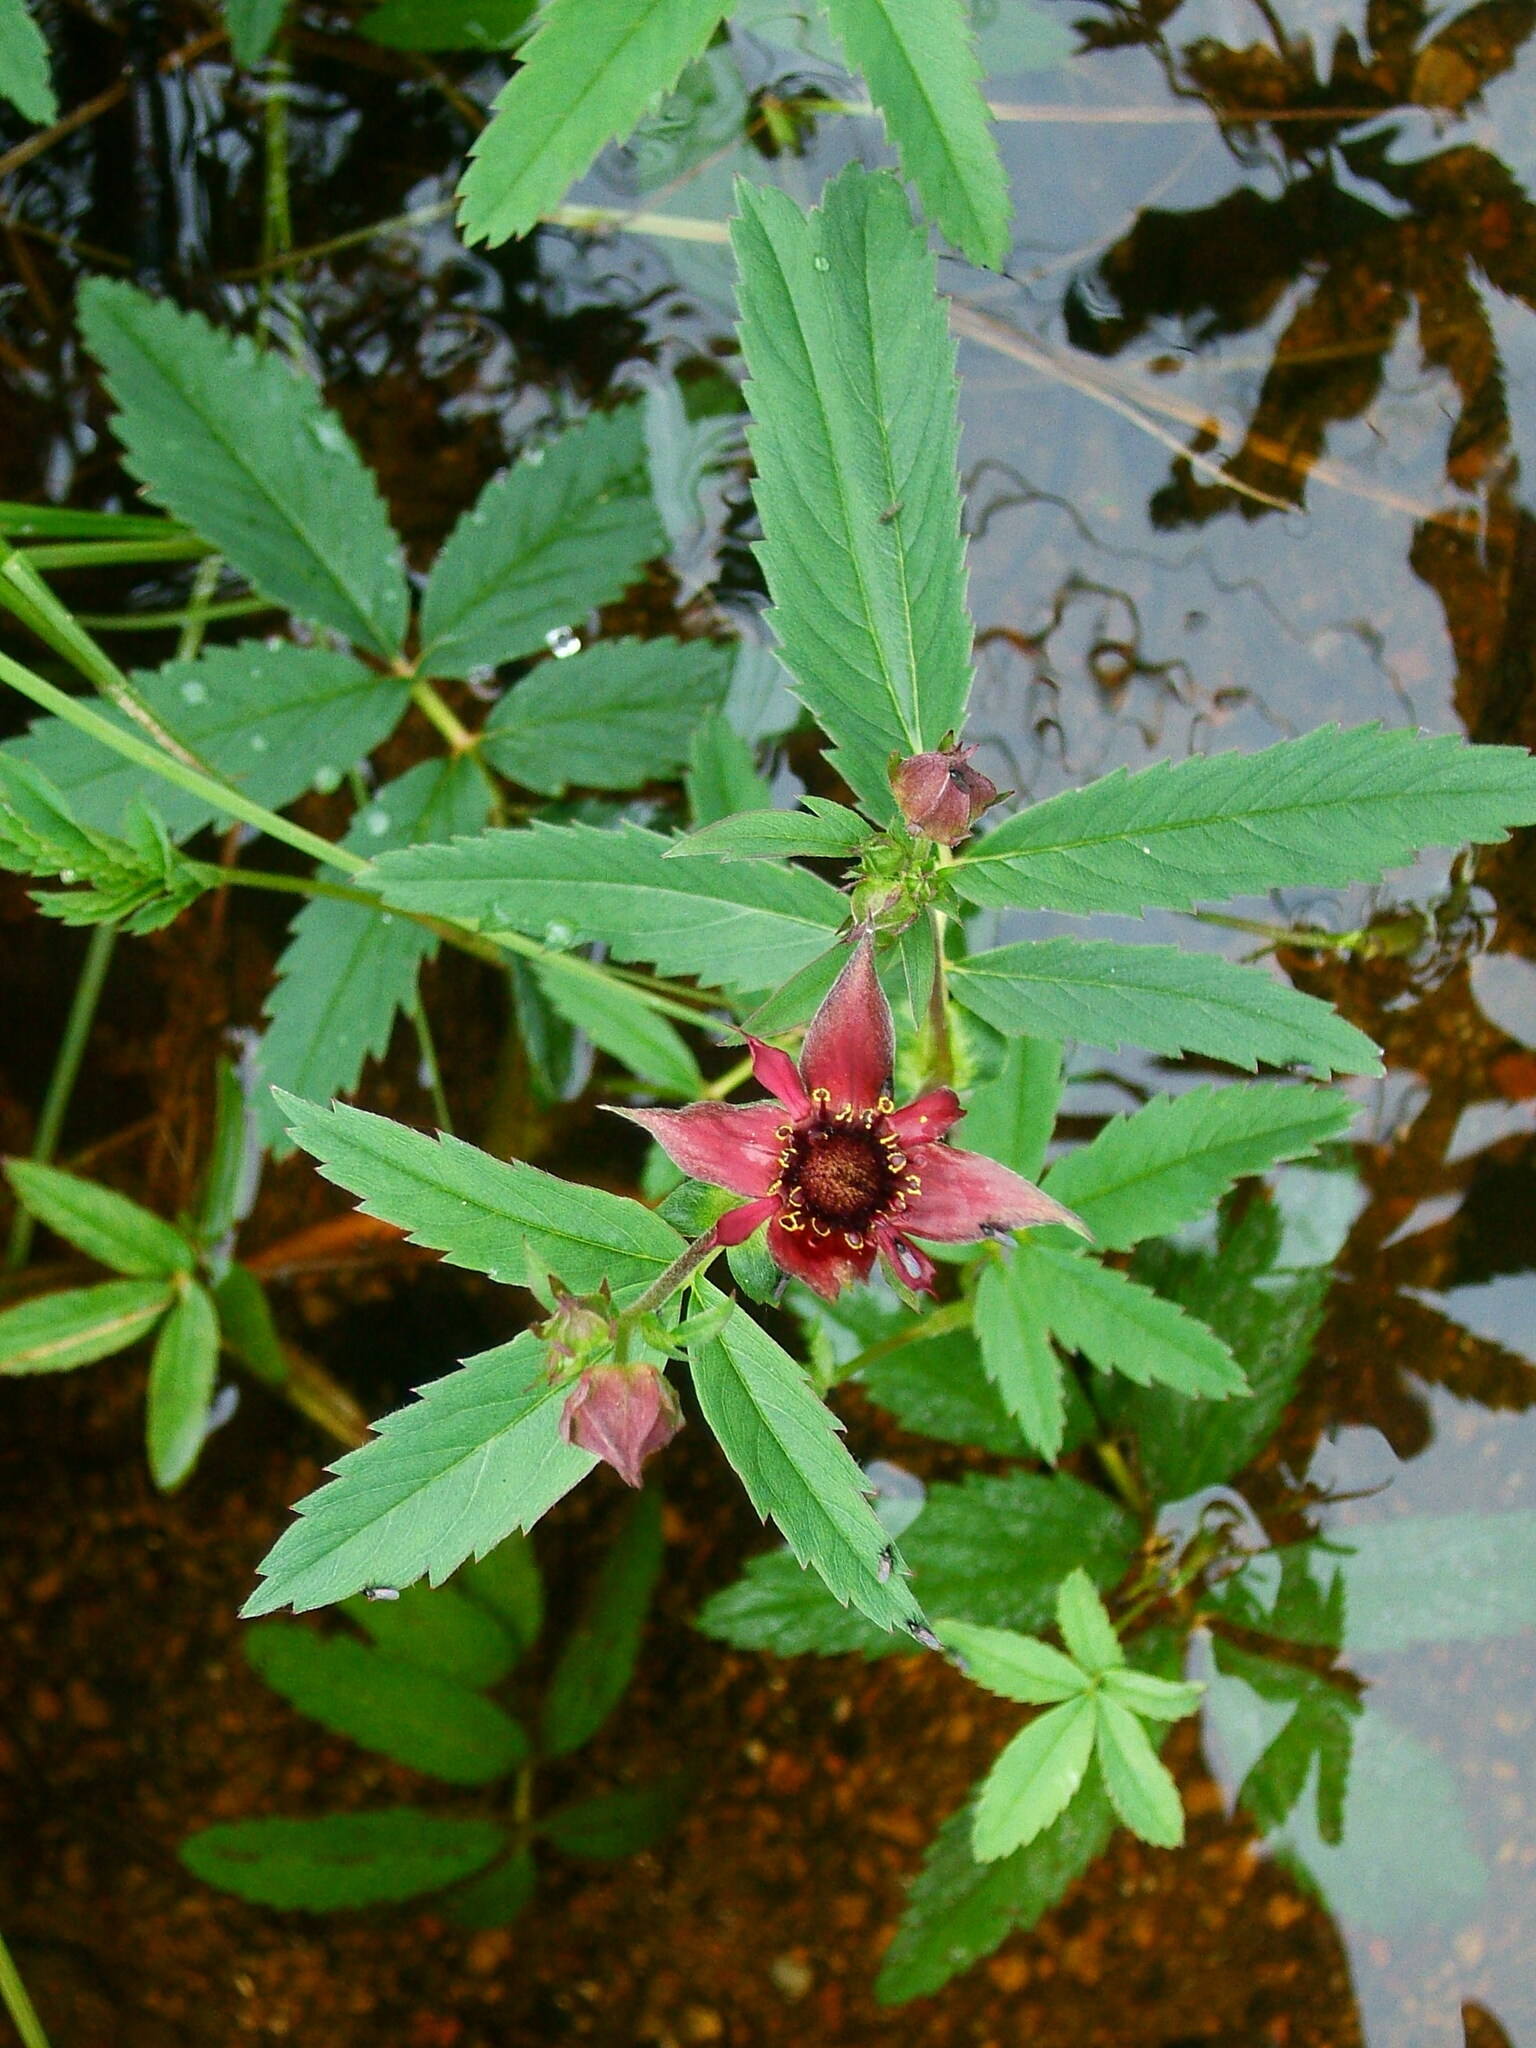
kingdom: Plantae
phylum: Tracheophyta
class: Magnoliopsida
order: Rosales
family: Rosaceae
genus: Comarum
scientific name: Comarum palustre
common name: Marsh cinquefoil
